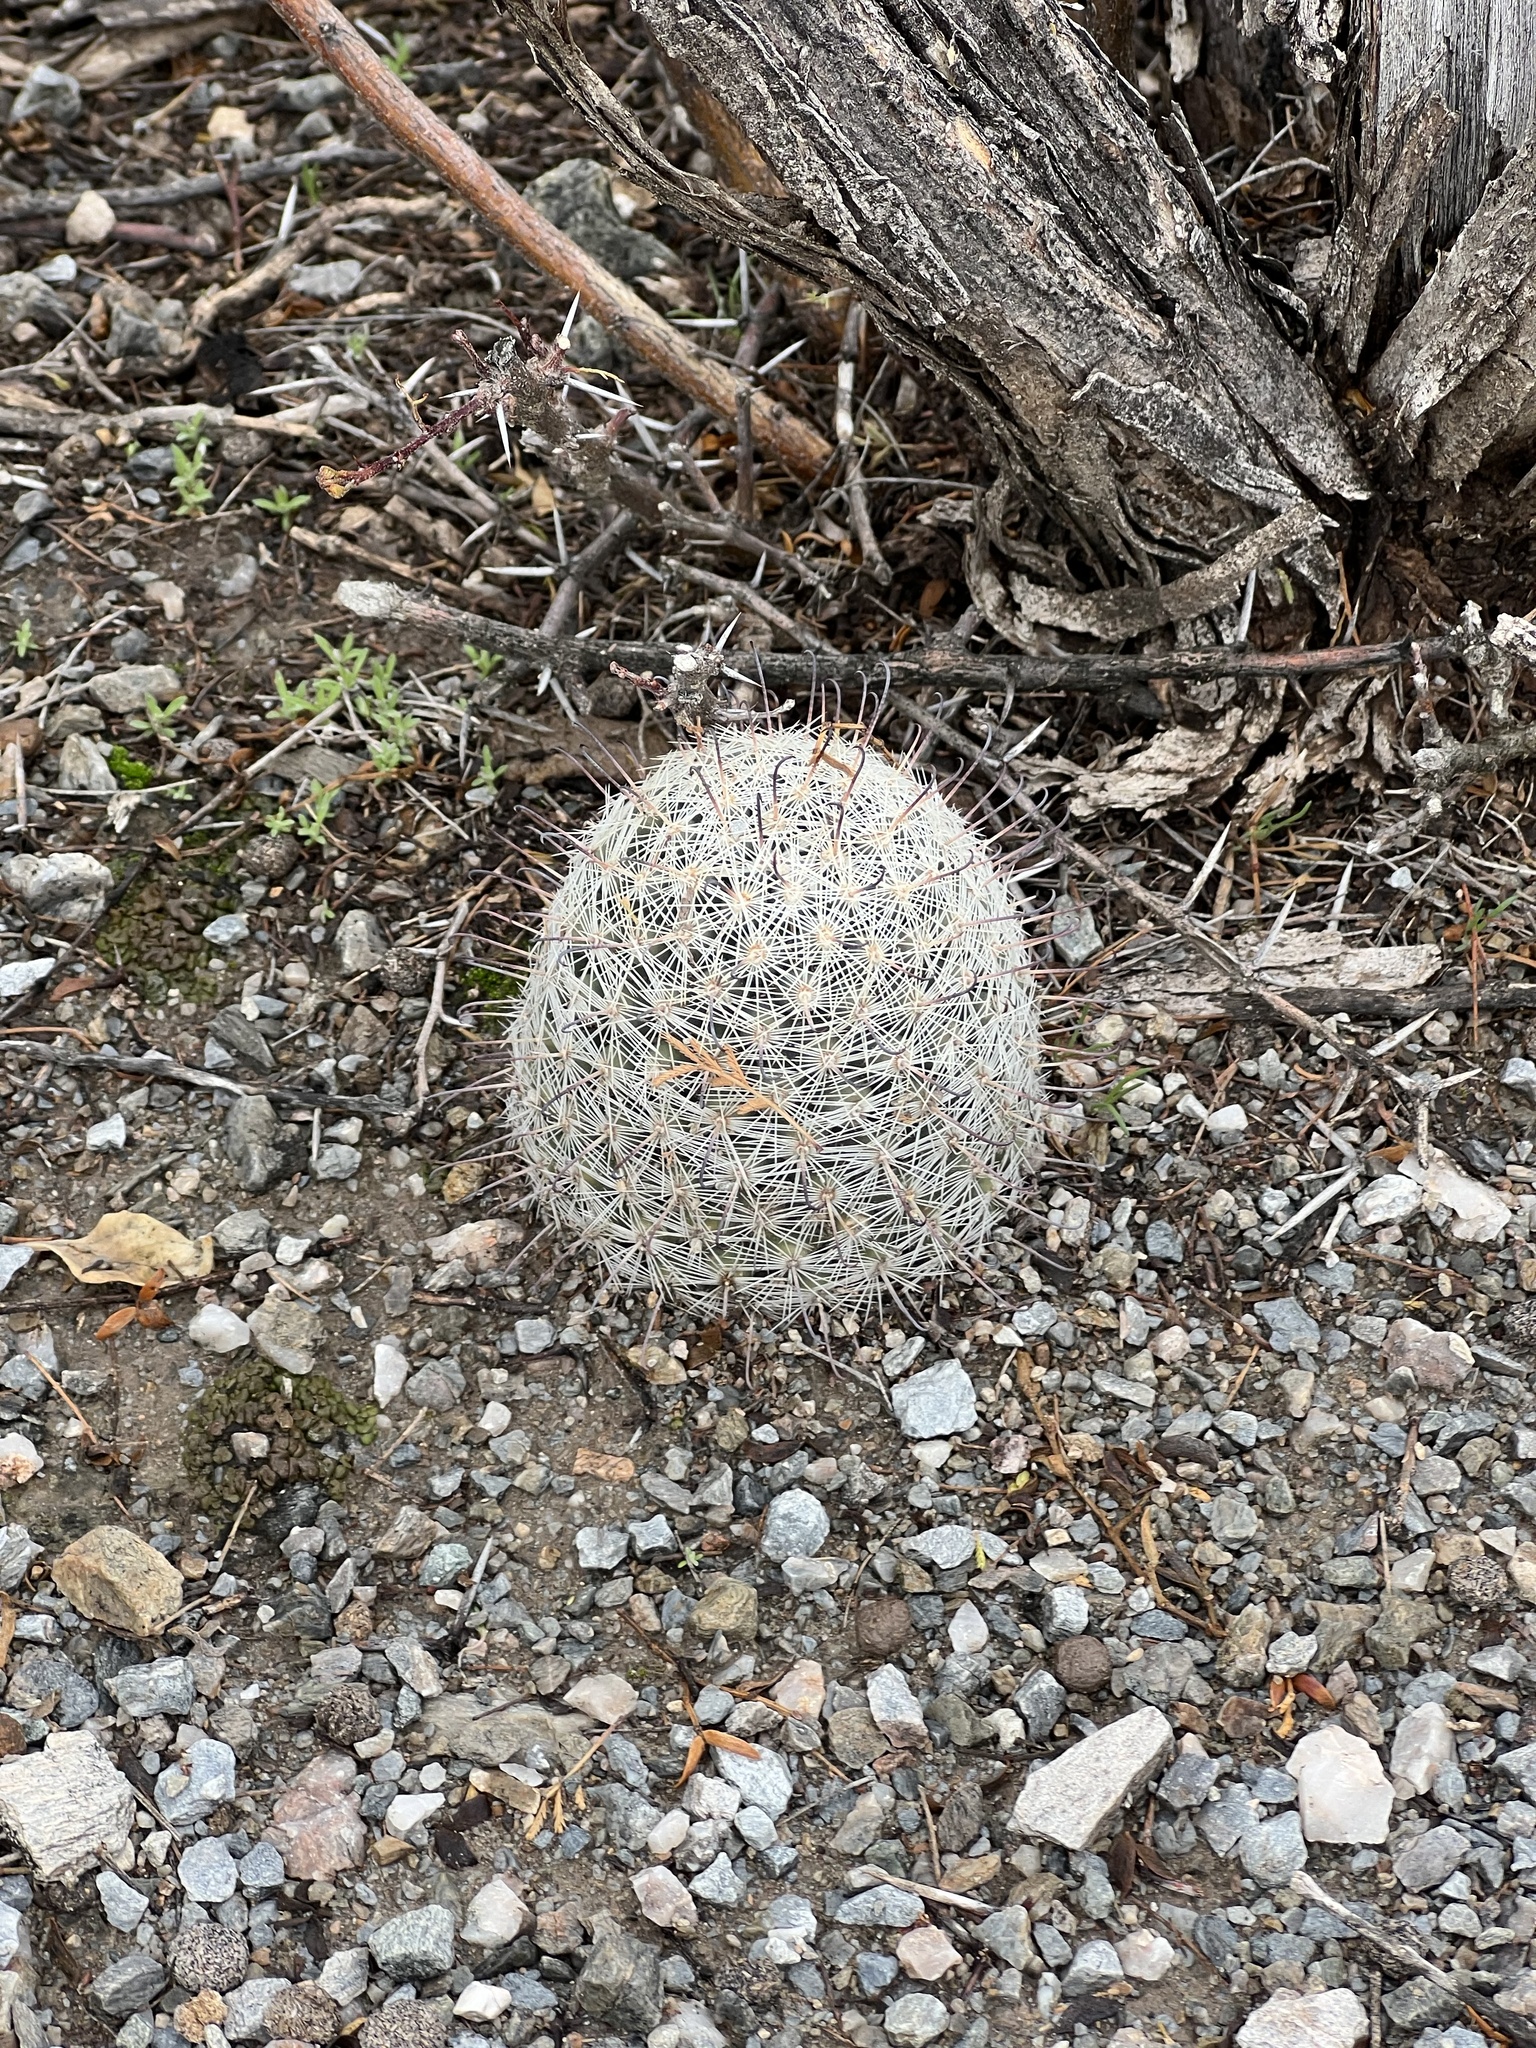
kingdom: Plantae
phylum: Tracheophyta
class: Magnoliopsida
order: Caryophyllales
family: Cactaceae
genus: Cochemiea
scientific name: Cochemiea grahamii
